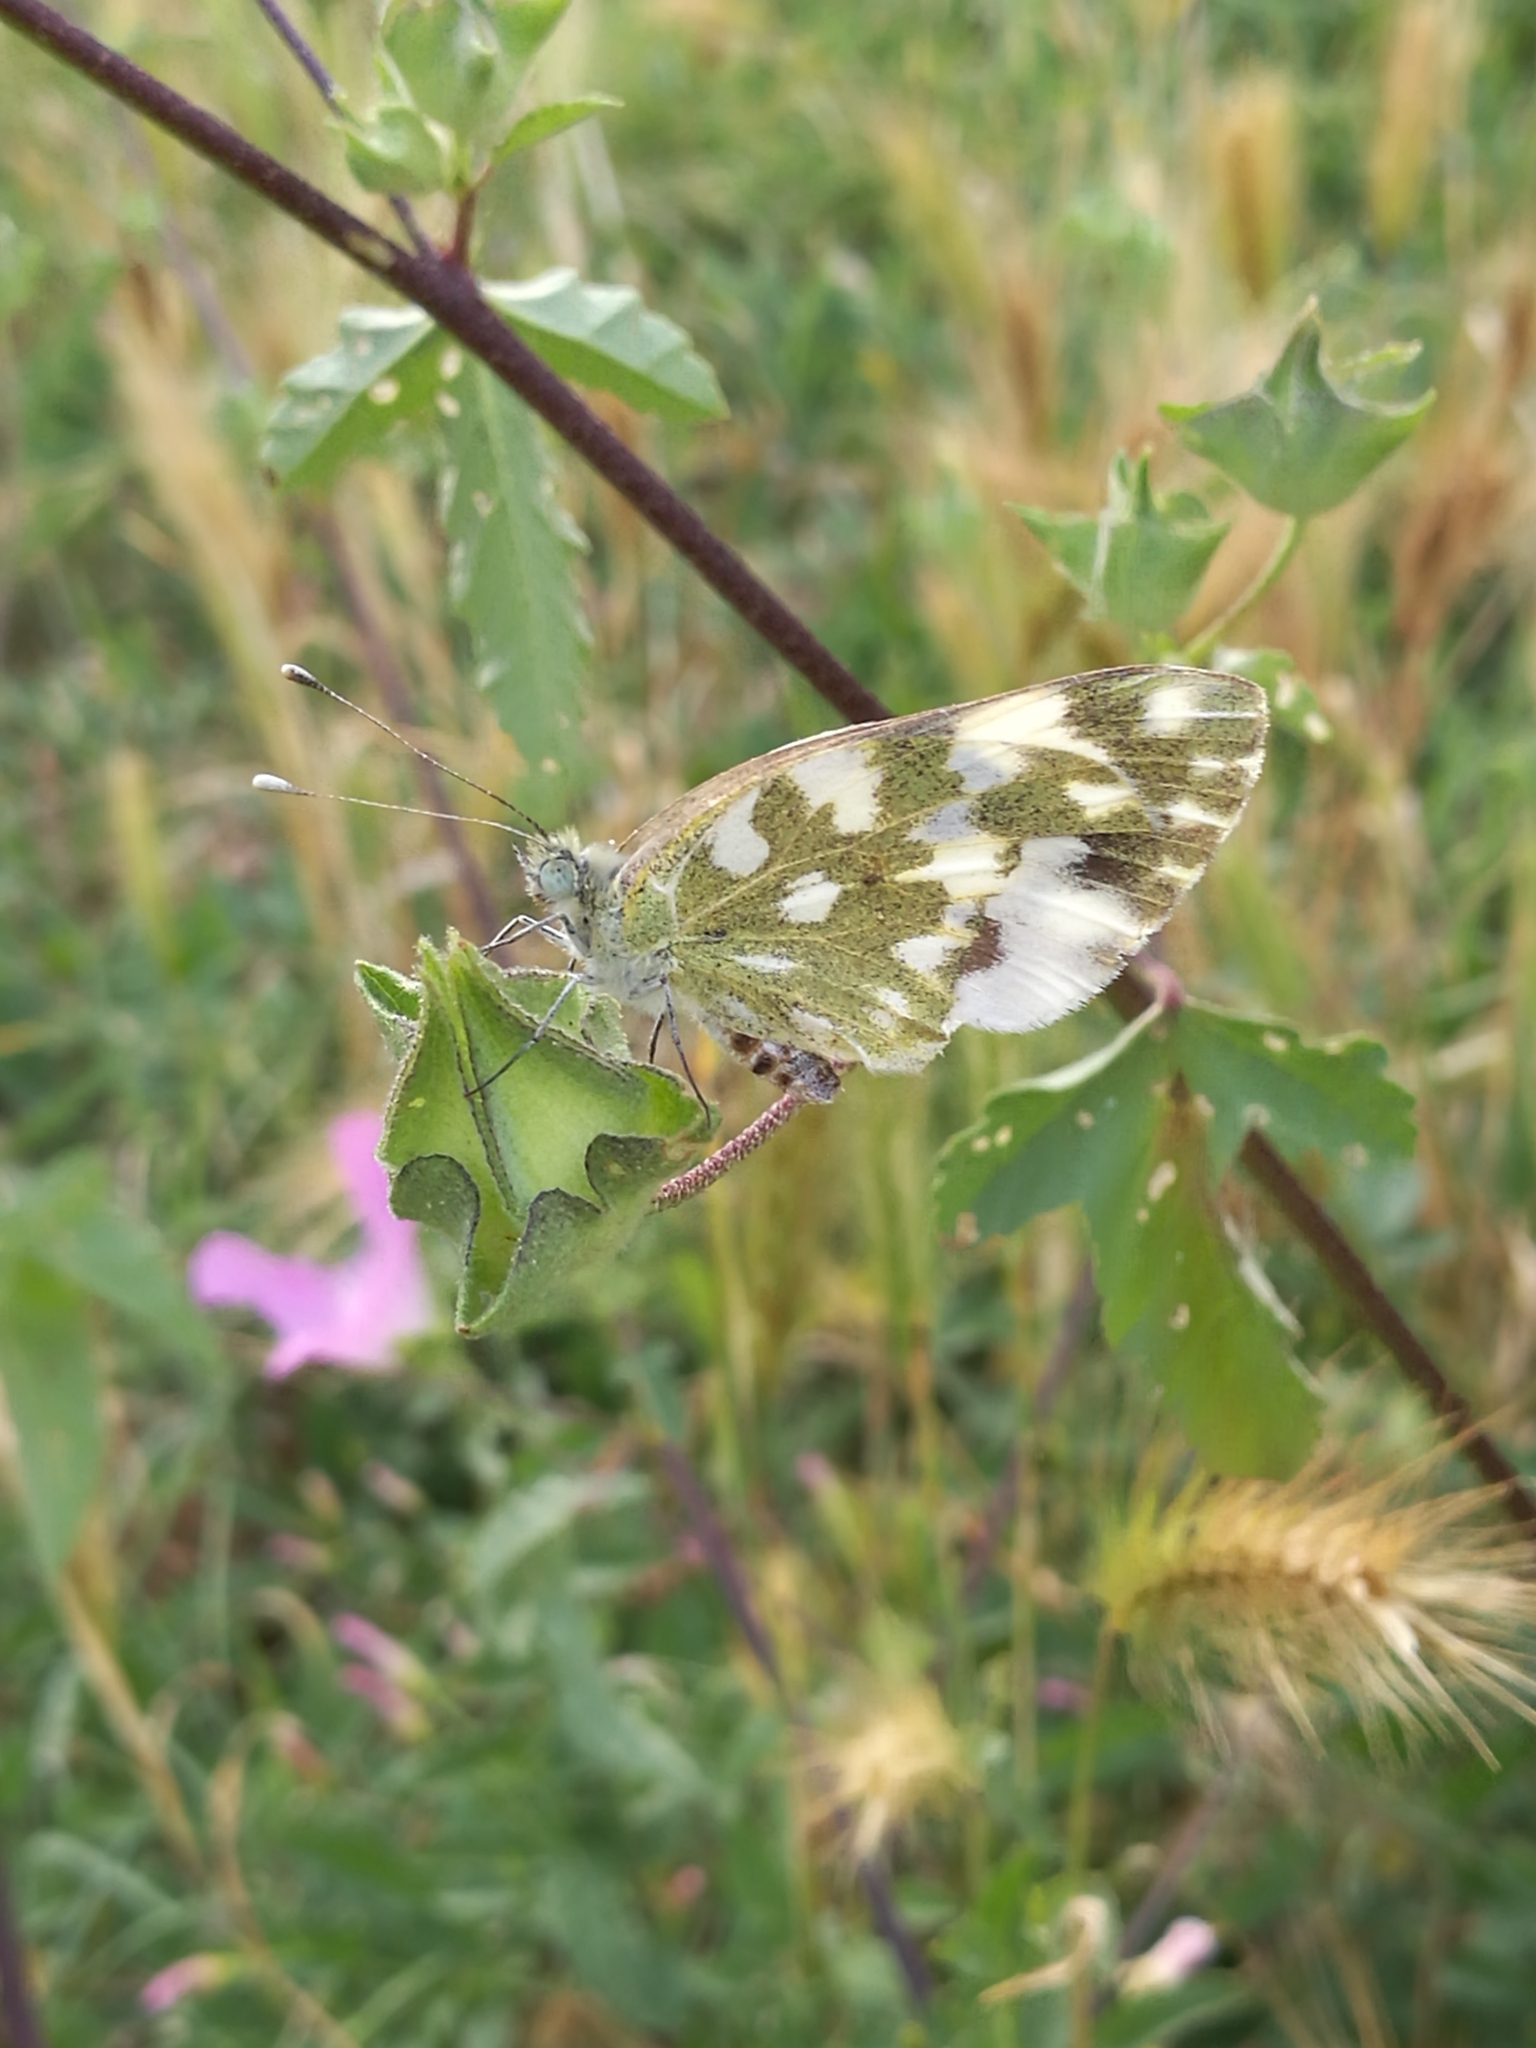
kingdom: Animalia
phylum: Arthropoda
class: Insecta
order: Lepidoptera
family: Pieridae
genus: Pontia
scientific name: Pontia edusa
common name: Eastern bath white
